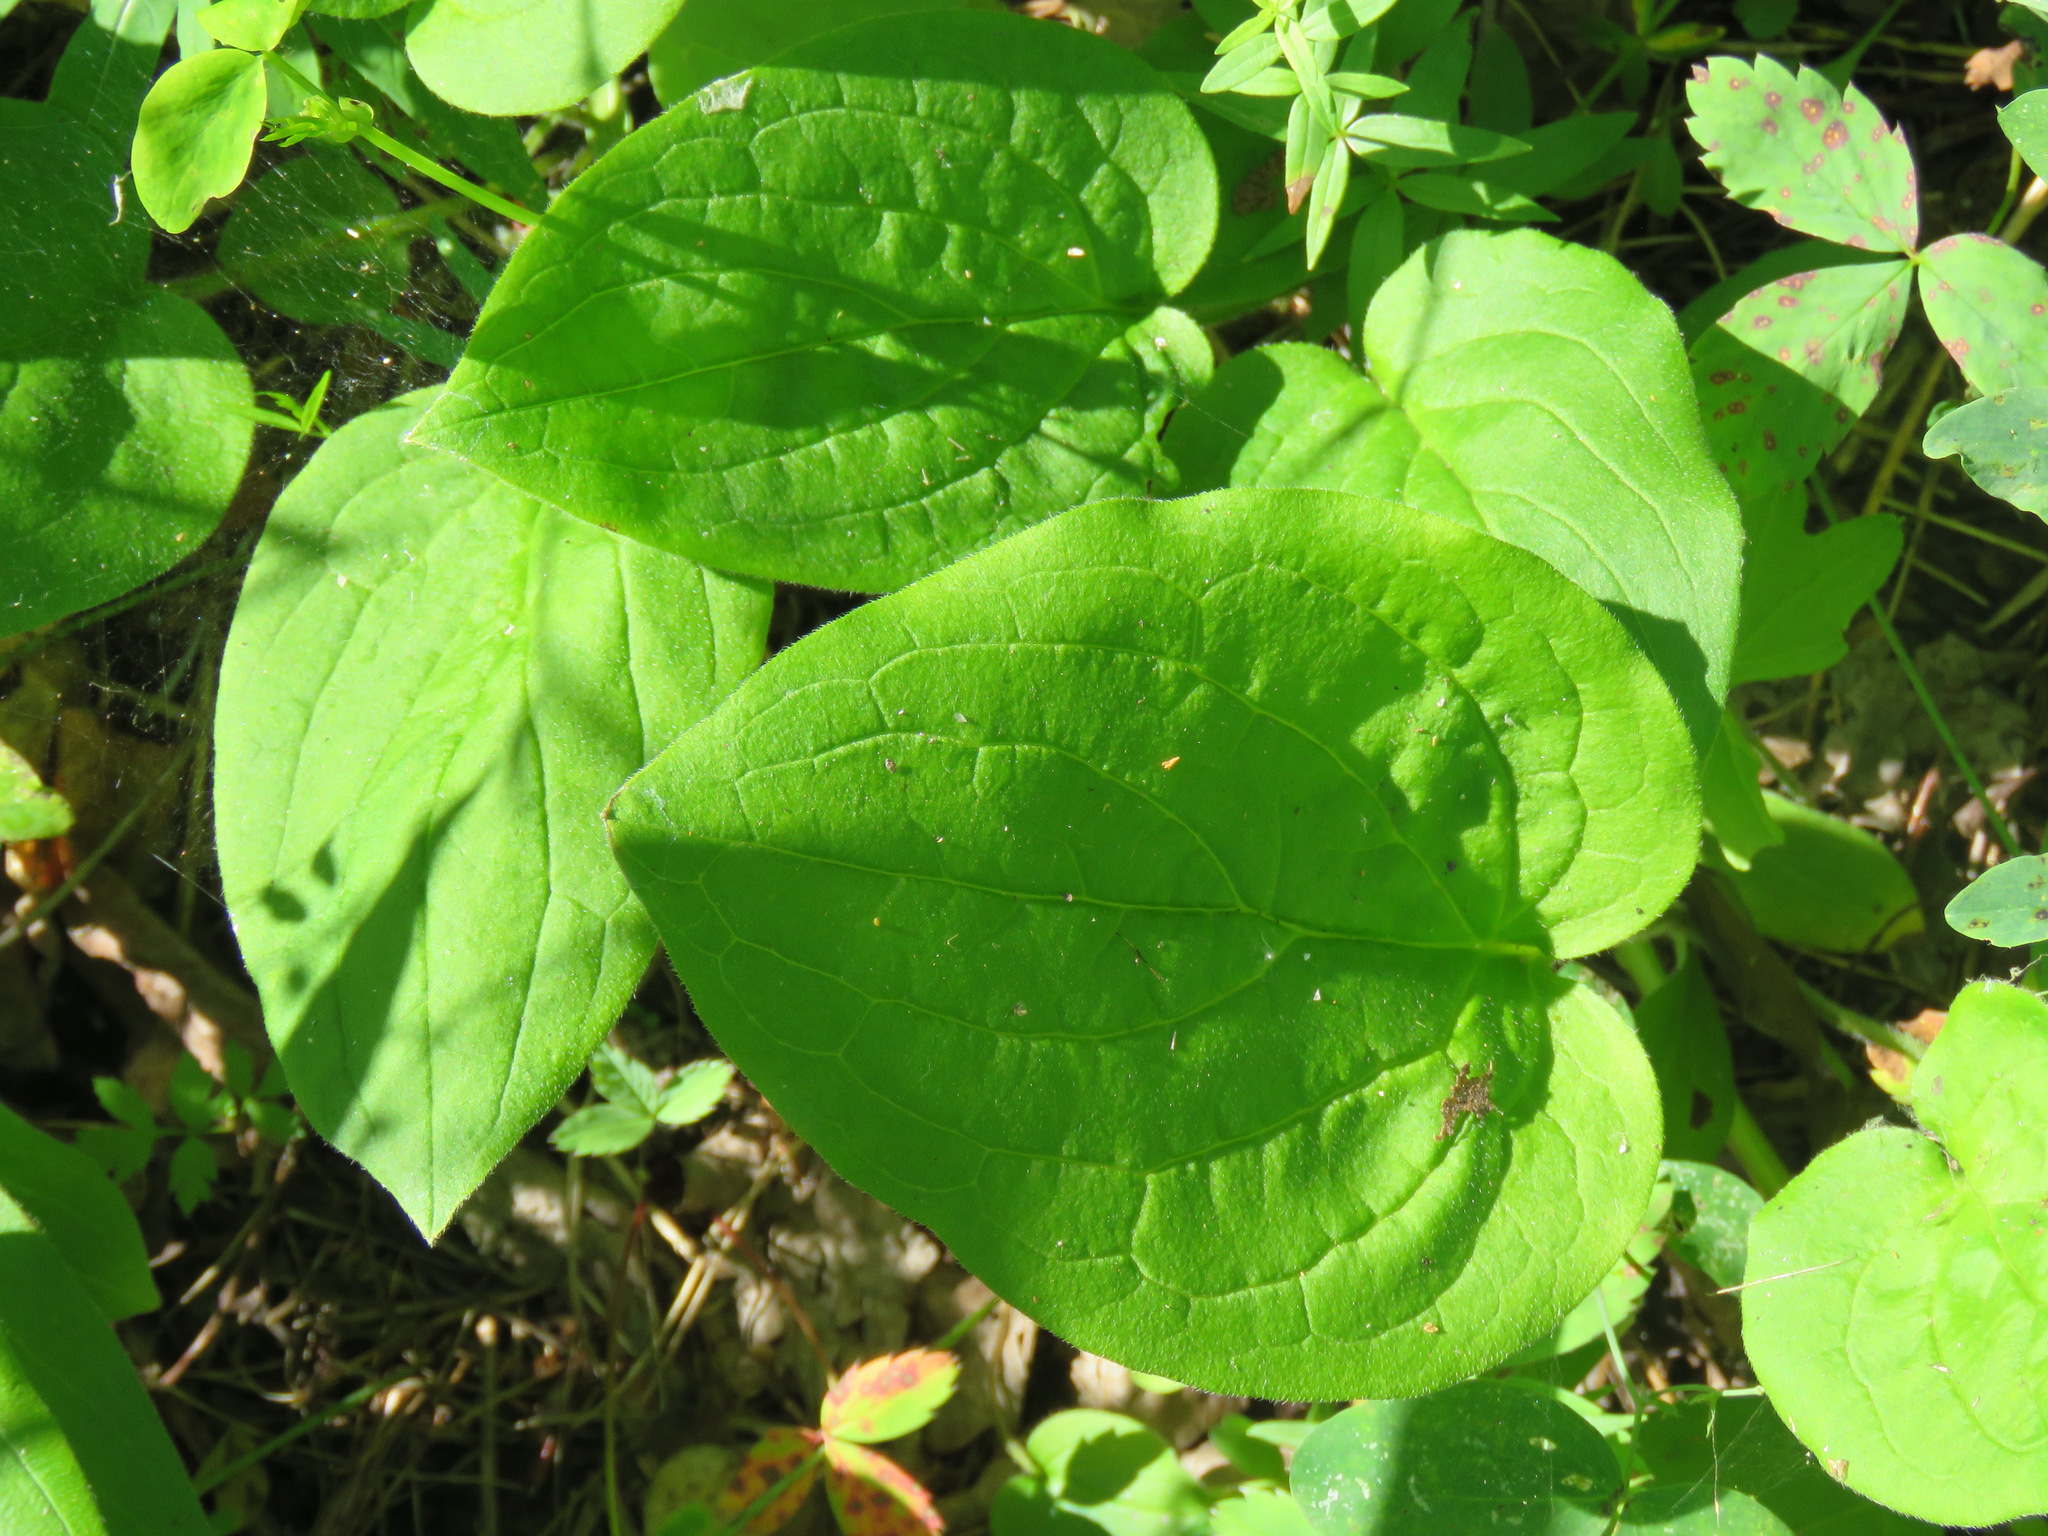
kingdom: Plantae
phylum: Tracheophyta
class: Magnoliopsida
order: Boraginales
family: Boraginaceae
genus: Mertensia
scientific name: Mertensia paniculata
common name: Panicled bluebells
